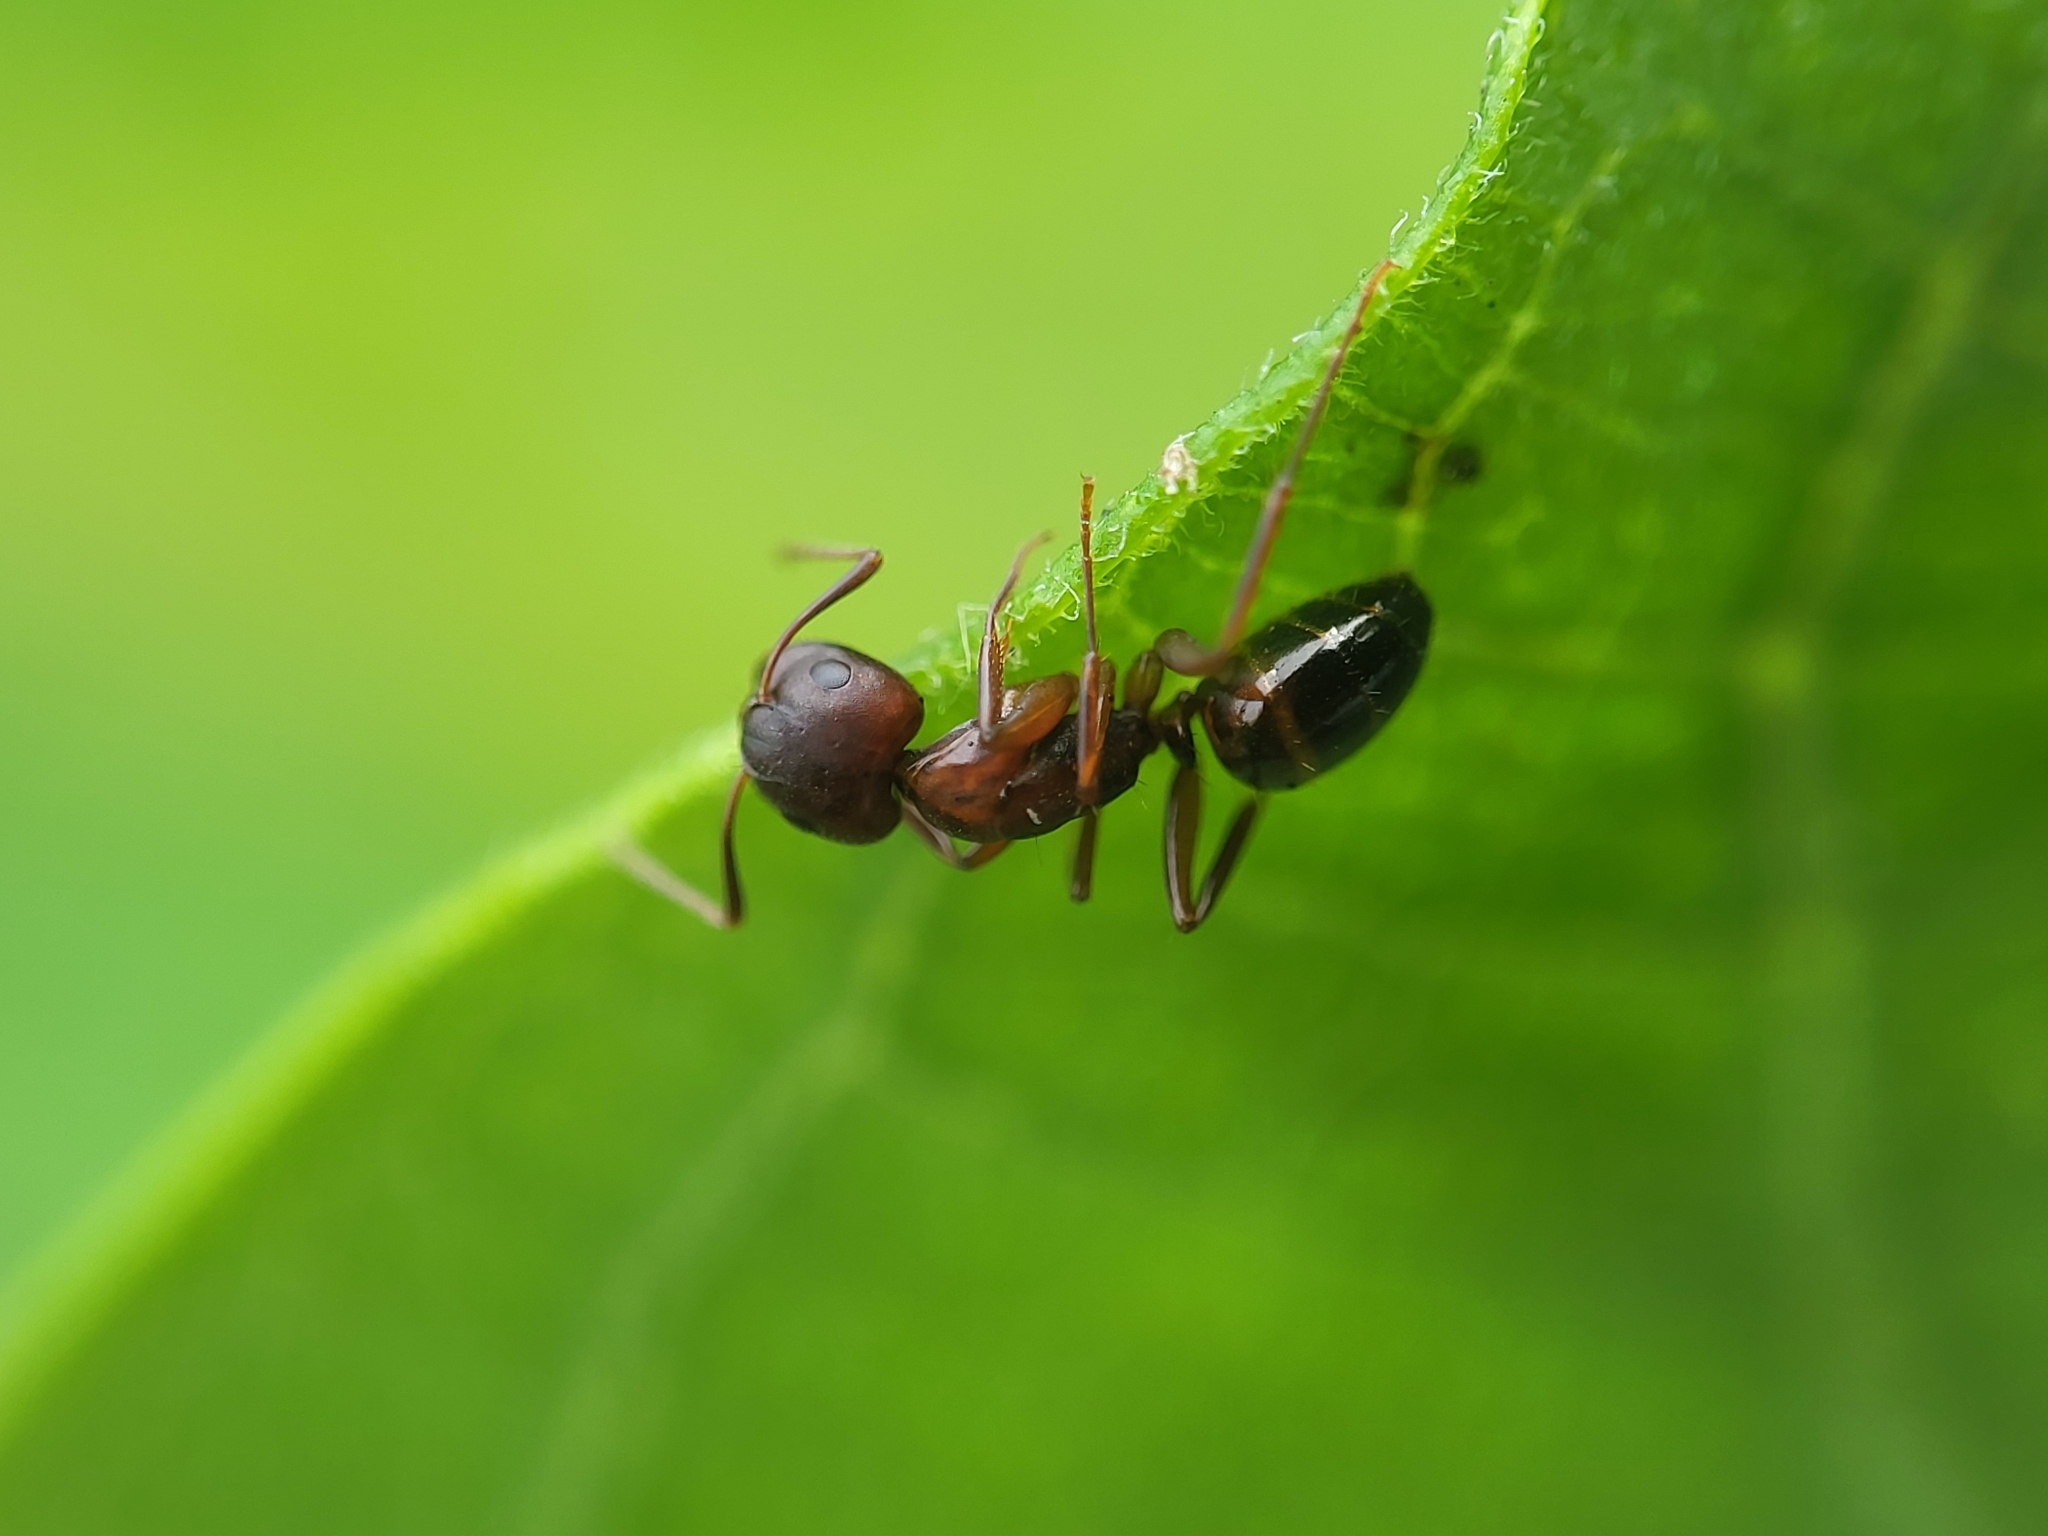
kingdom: Animalia
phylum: Arthropoda
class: Insecta
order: Hymenoptera
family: Formicidae
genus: Camponotus
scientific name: Camponotus subbarbatus
